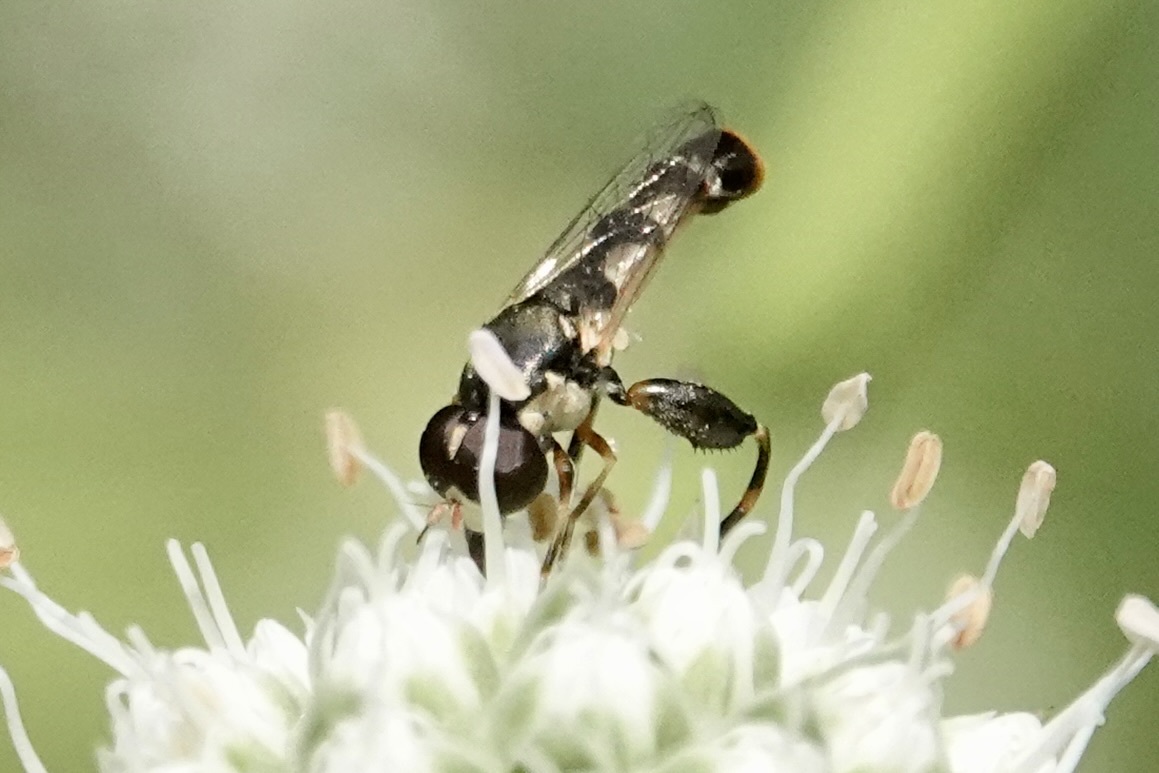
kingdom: Animalia
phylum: Arthropoda
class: Insecta
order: Diptera
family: Syrphidae
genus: Syritta
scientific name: Syritta pipiens
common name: Hover fly
